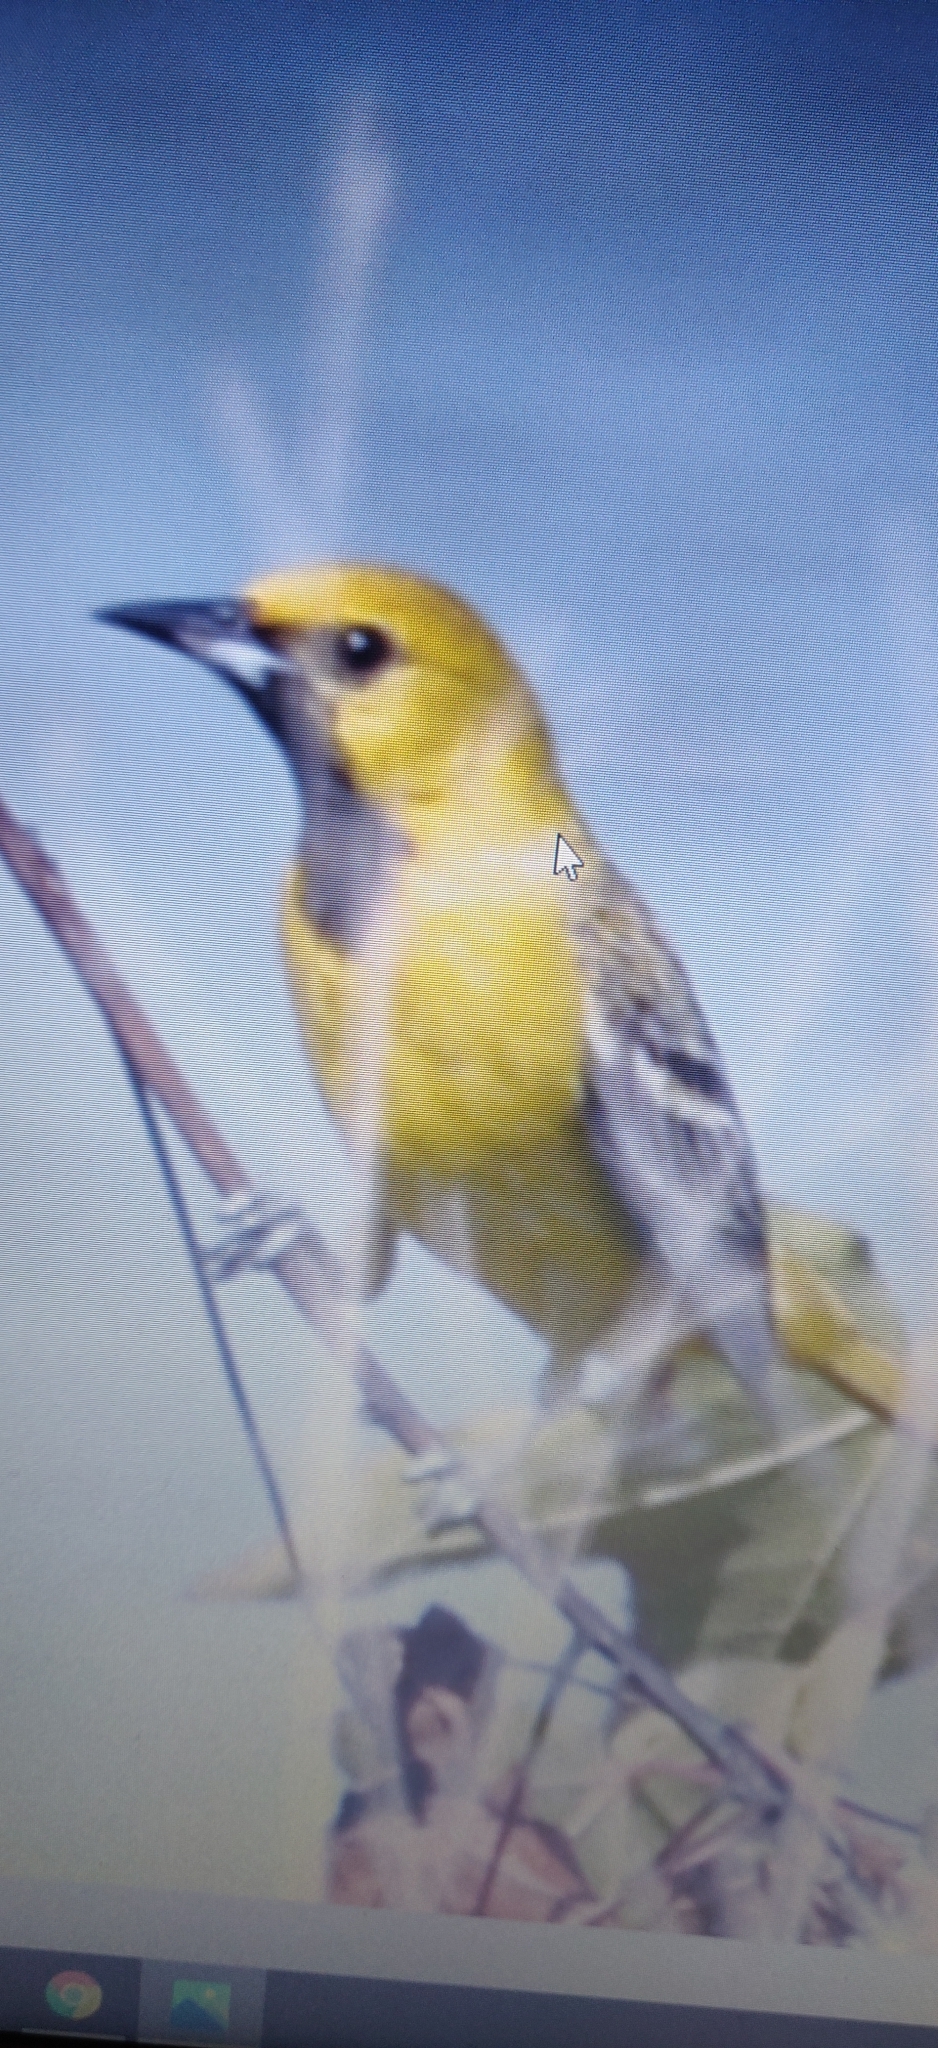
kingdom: Animalia
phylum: Chordata
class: Aves
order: Passeriformes
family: Icteridae
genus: Icterus
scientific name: Icterus spurius
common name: Orchard oriole
